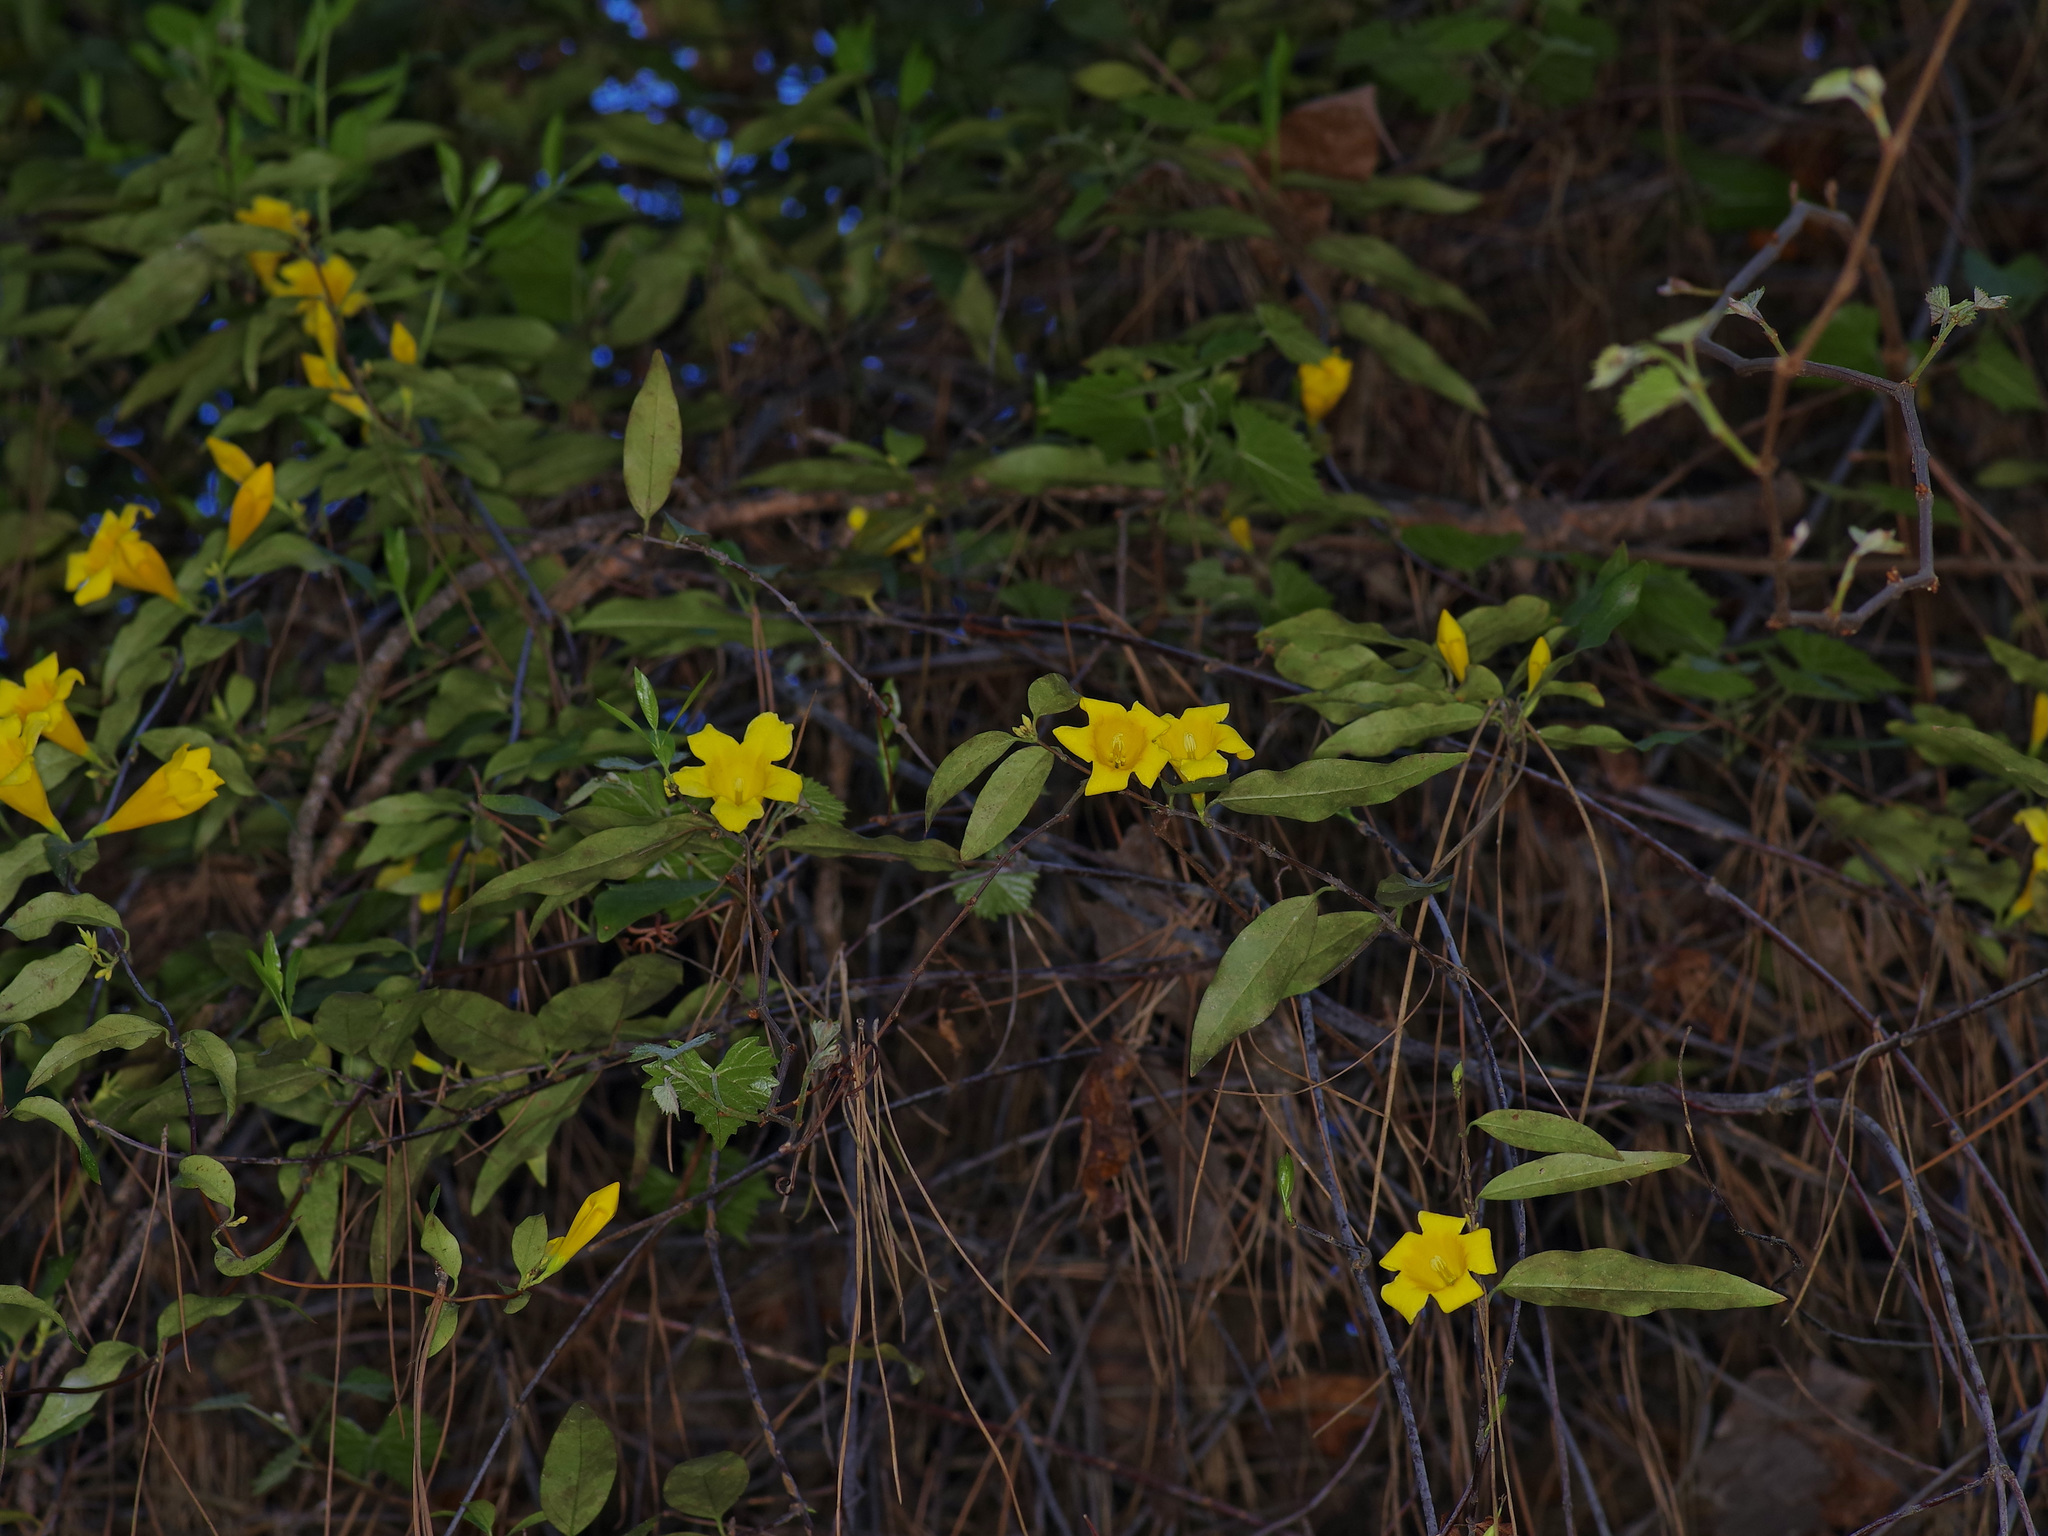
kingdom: Plantae
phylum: Tracheophyta
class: Magnoliopsida
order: Gentianales
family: Gelsemiaceae
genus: Gelsemium
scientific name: Gelsemium sempervirens
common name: Carolina-jasmine
